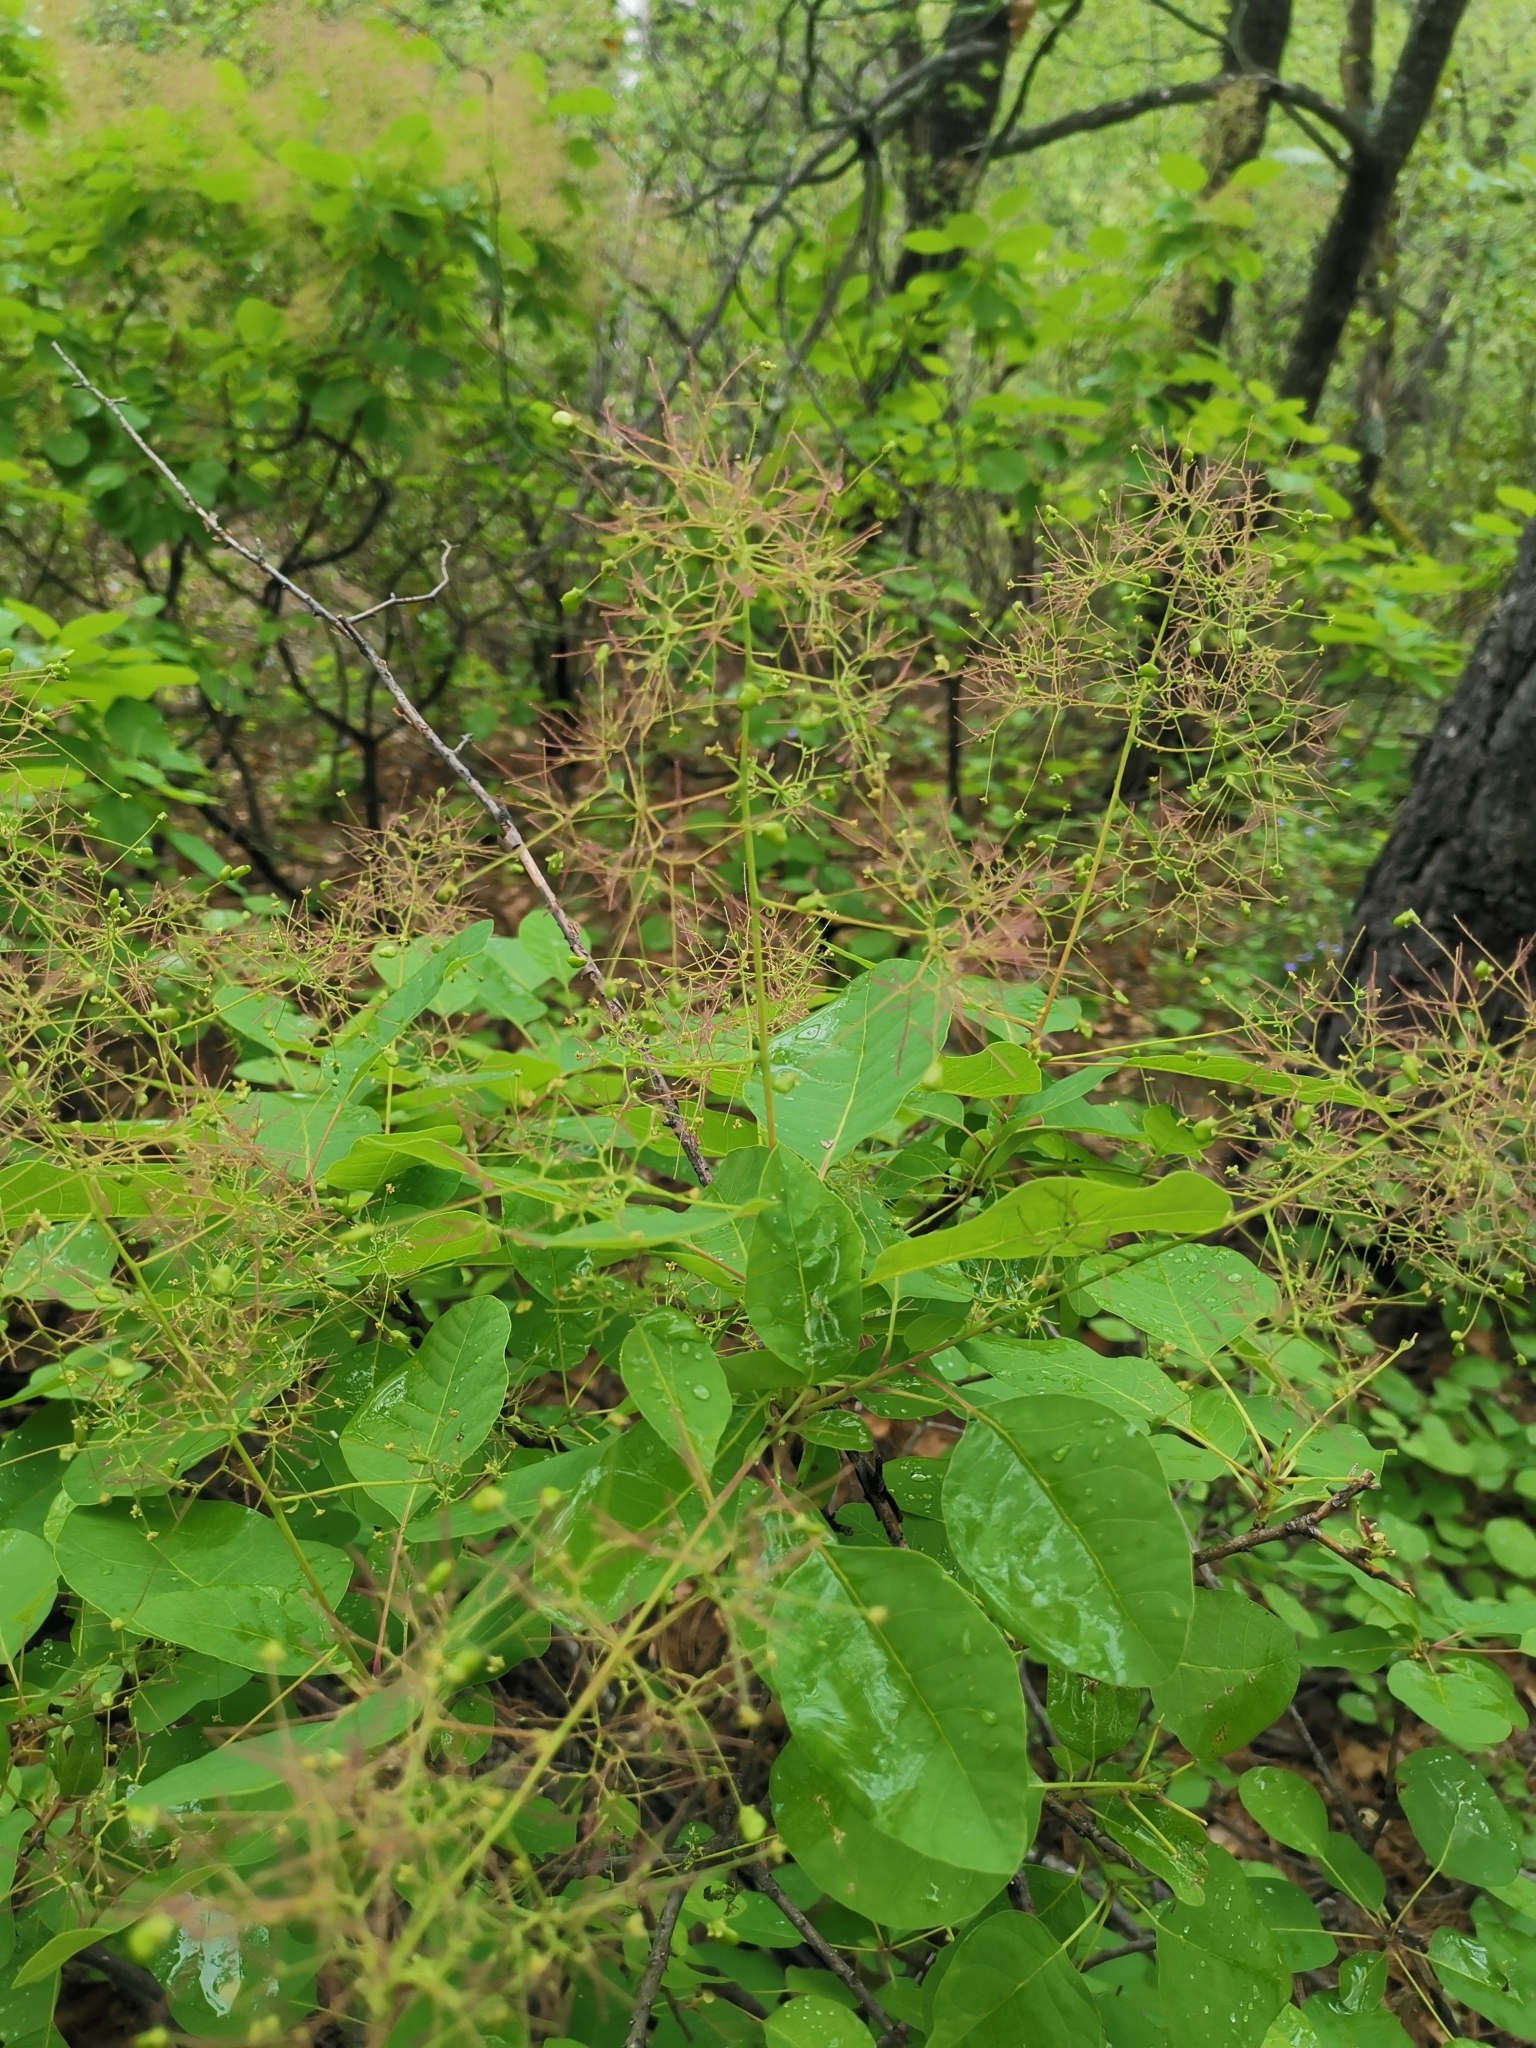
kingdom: Plantae
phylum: Tracheophyta
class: Magnoliopsida
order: Sapindales
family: Anacardiaceae
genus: Cotinus
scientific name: Cotinus coggygria
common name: Smoke-tree
